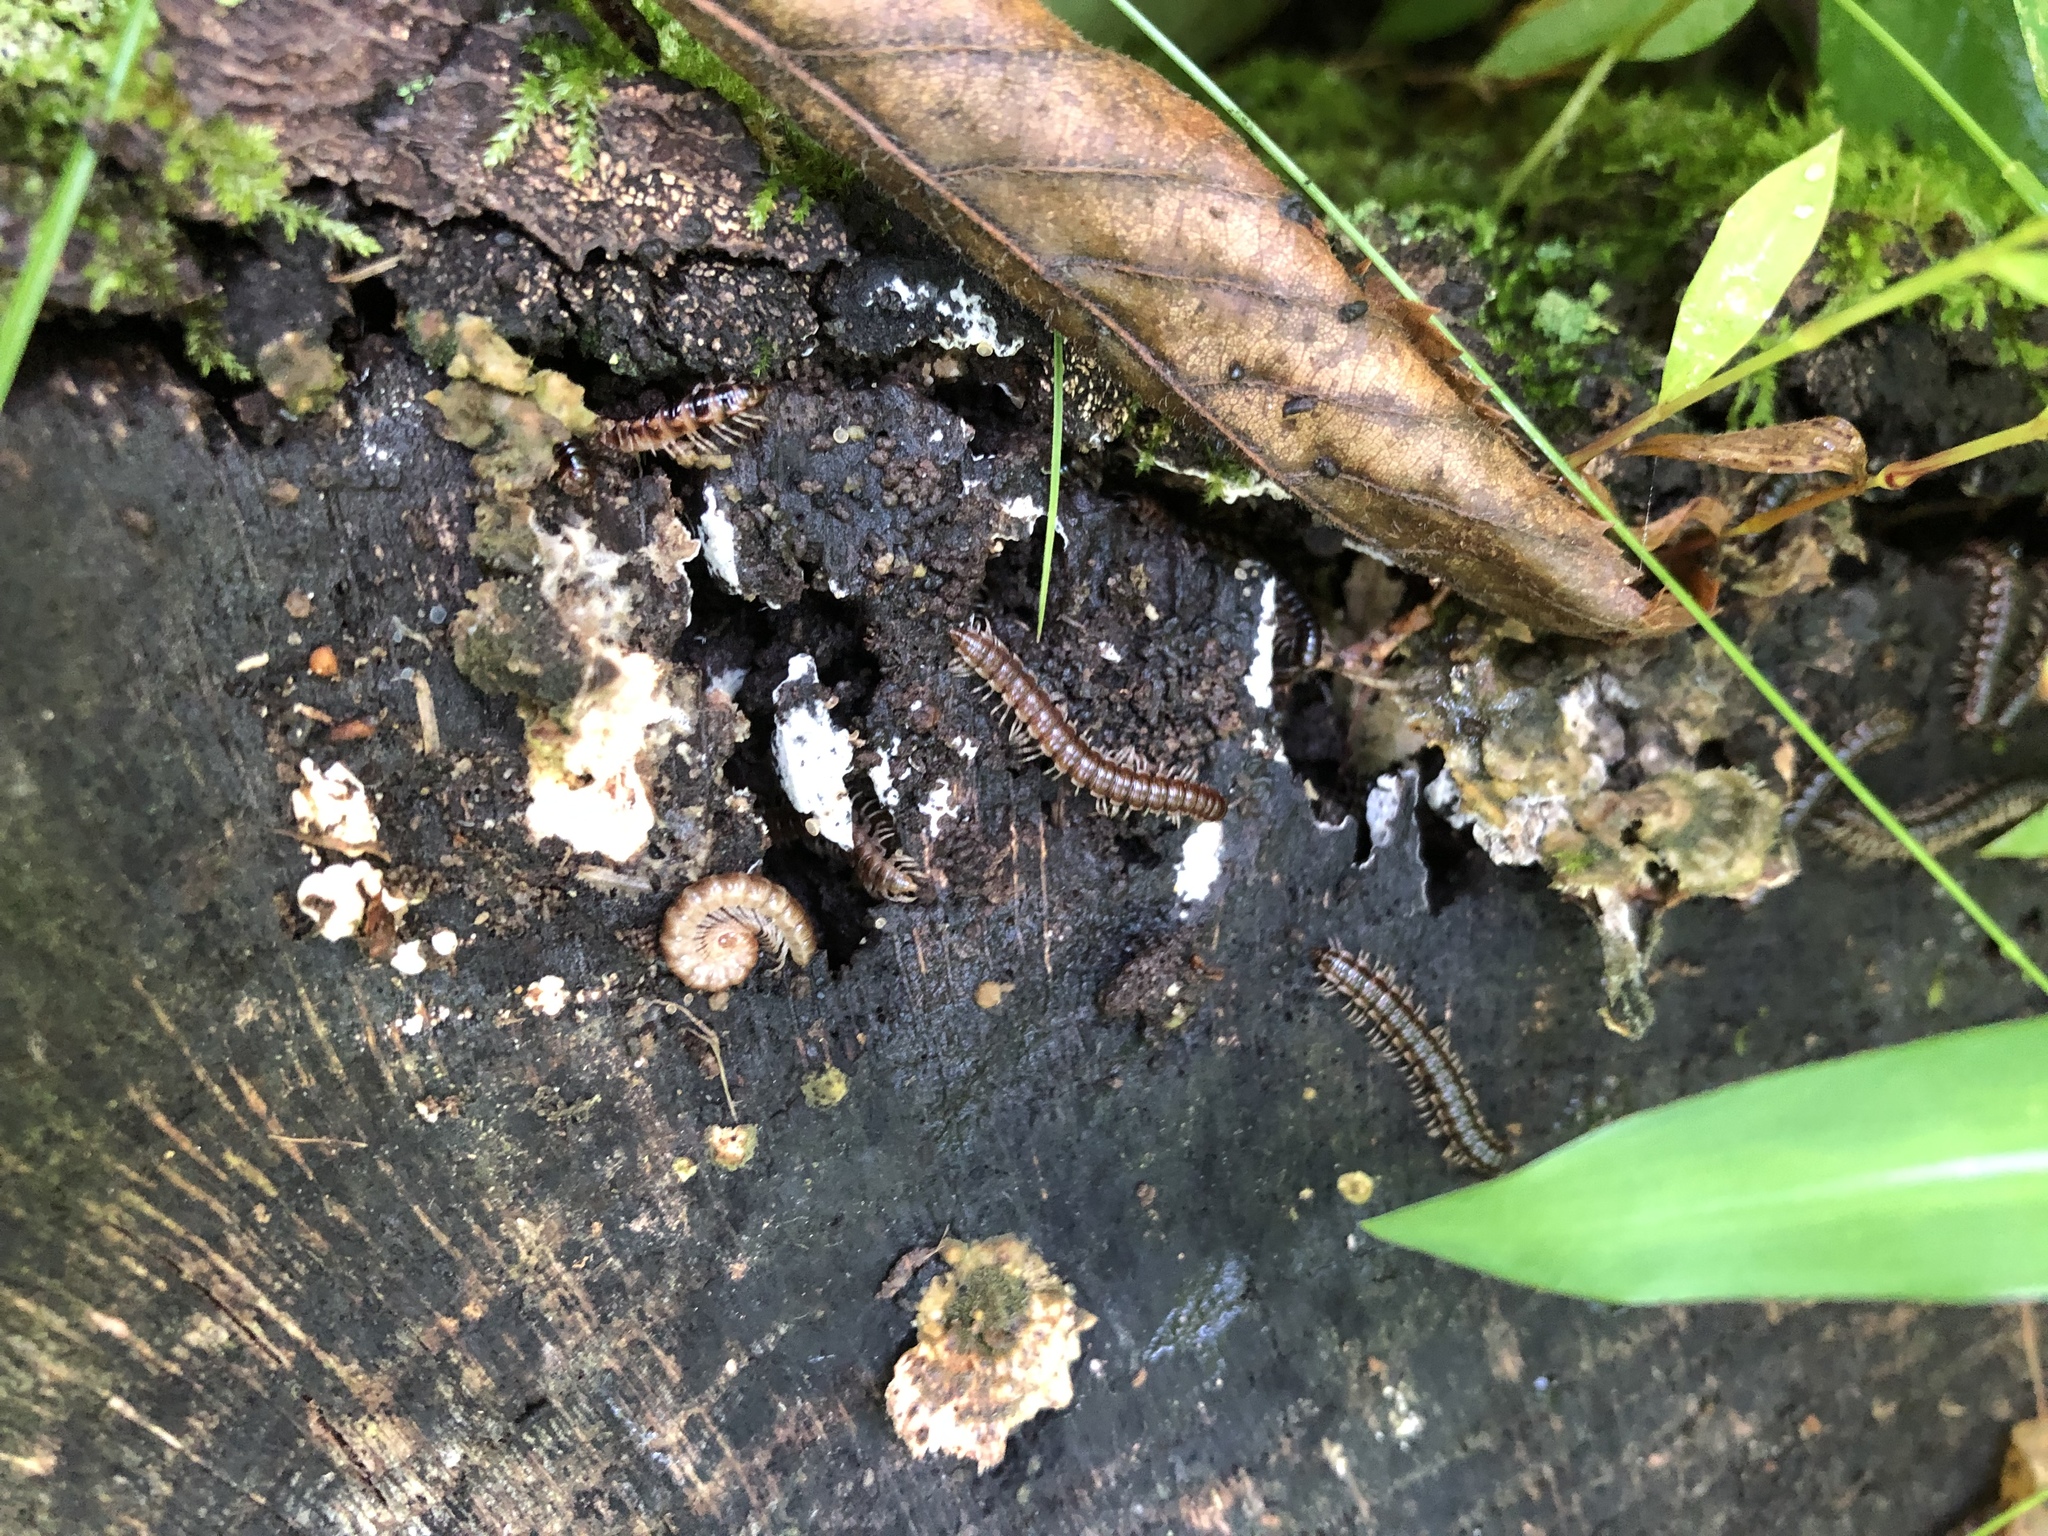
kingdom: Animalia
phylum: Arthropoda
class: Diplopoda
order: Polydesmida
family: Paradoxosomatidae
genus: Oxidus
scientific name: Oxidus gracilis
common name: Greenhouse millipede
